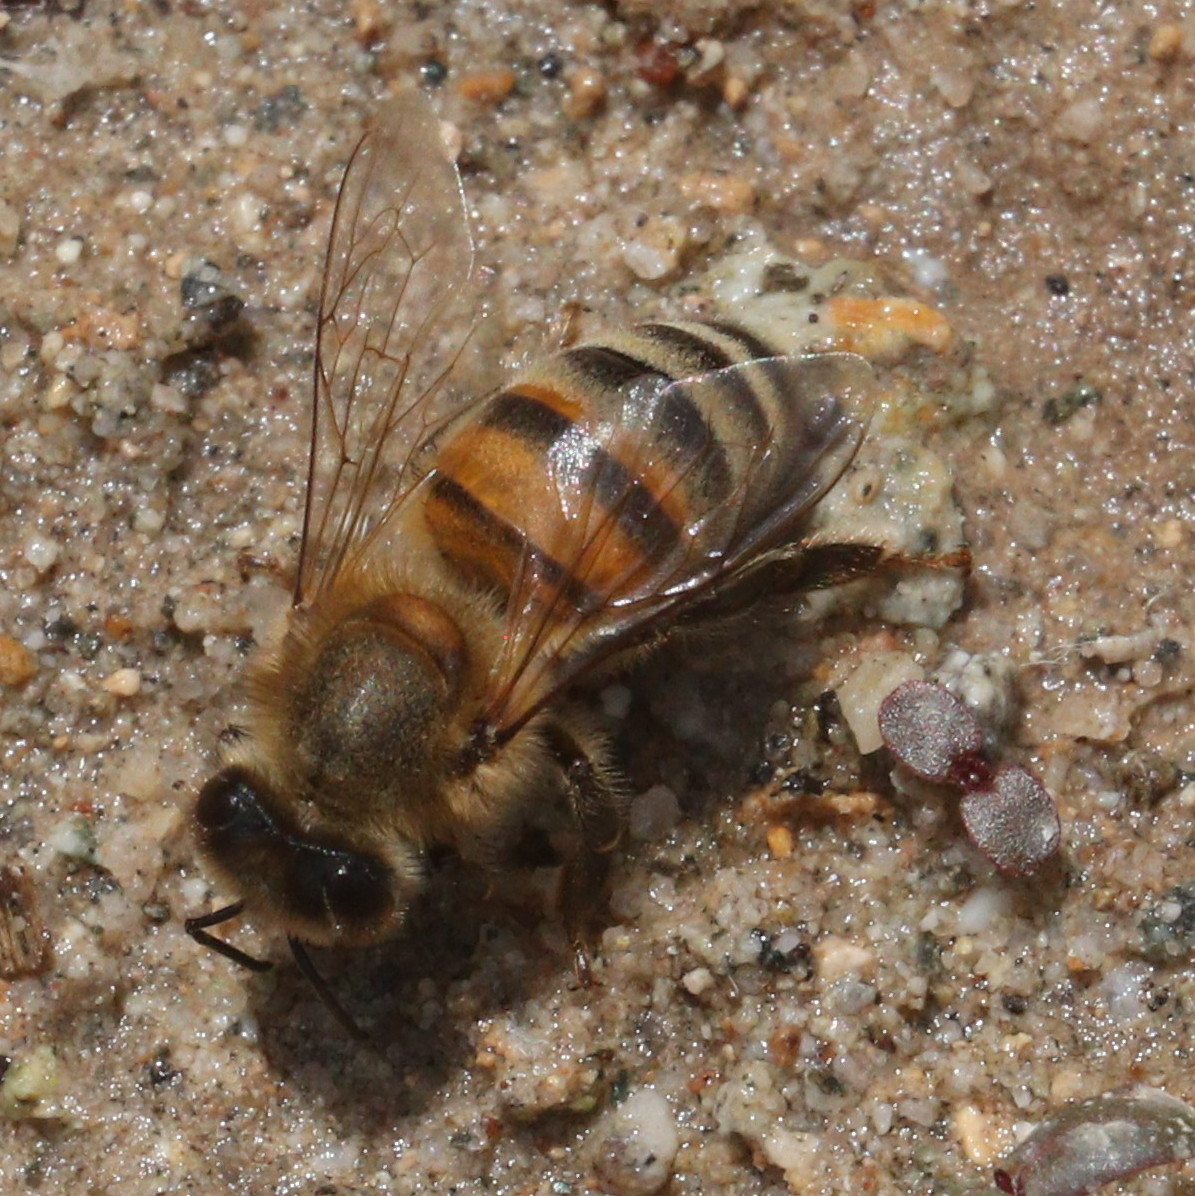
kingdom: Animalia
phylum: Arthropoda
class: Insecta
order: Hymenoptera
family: Apidae
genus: Apis
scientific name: Apis mellifera
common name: Honey bee
